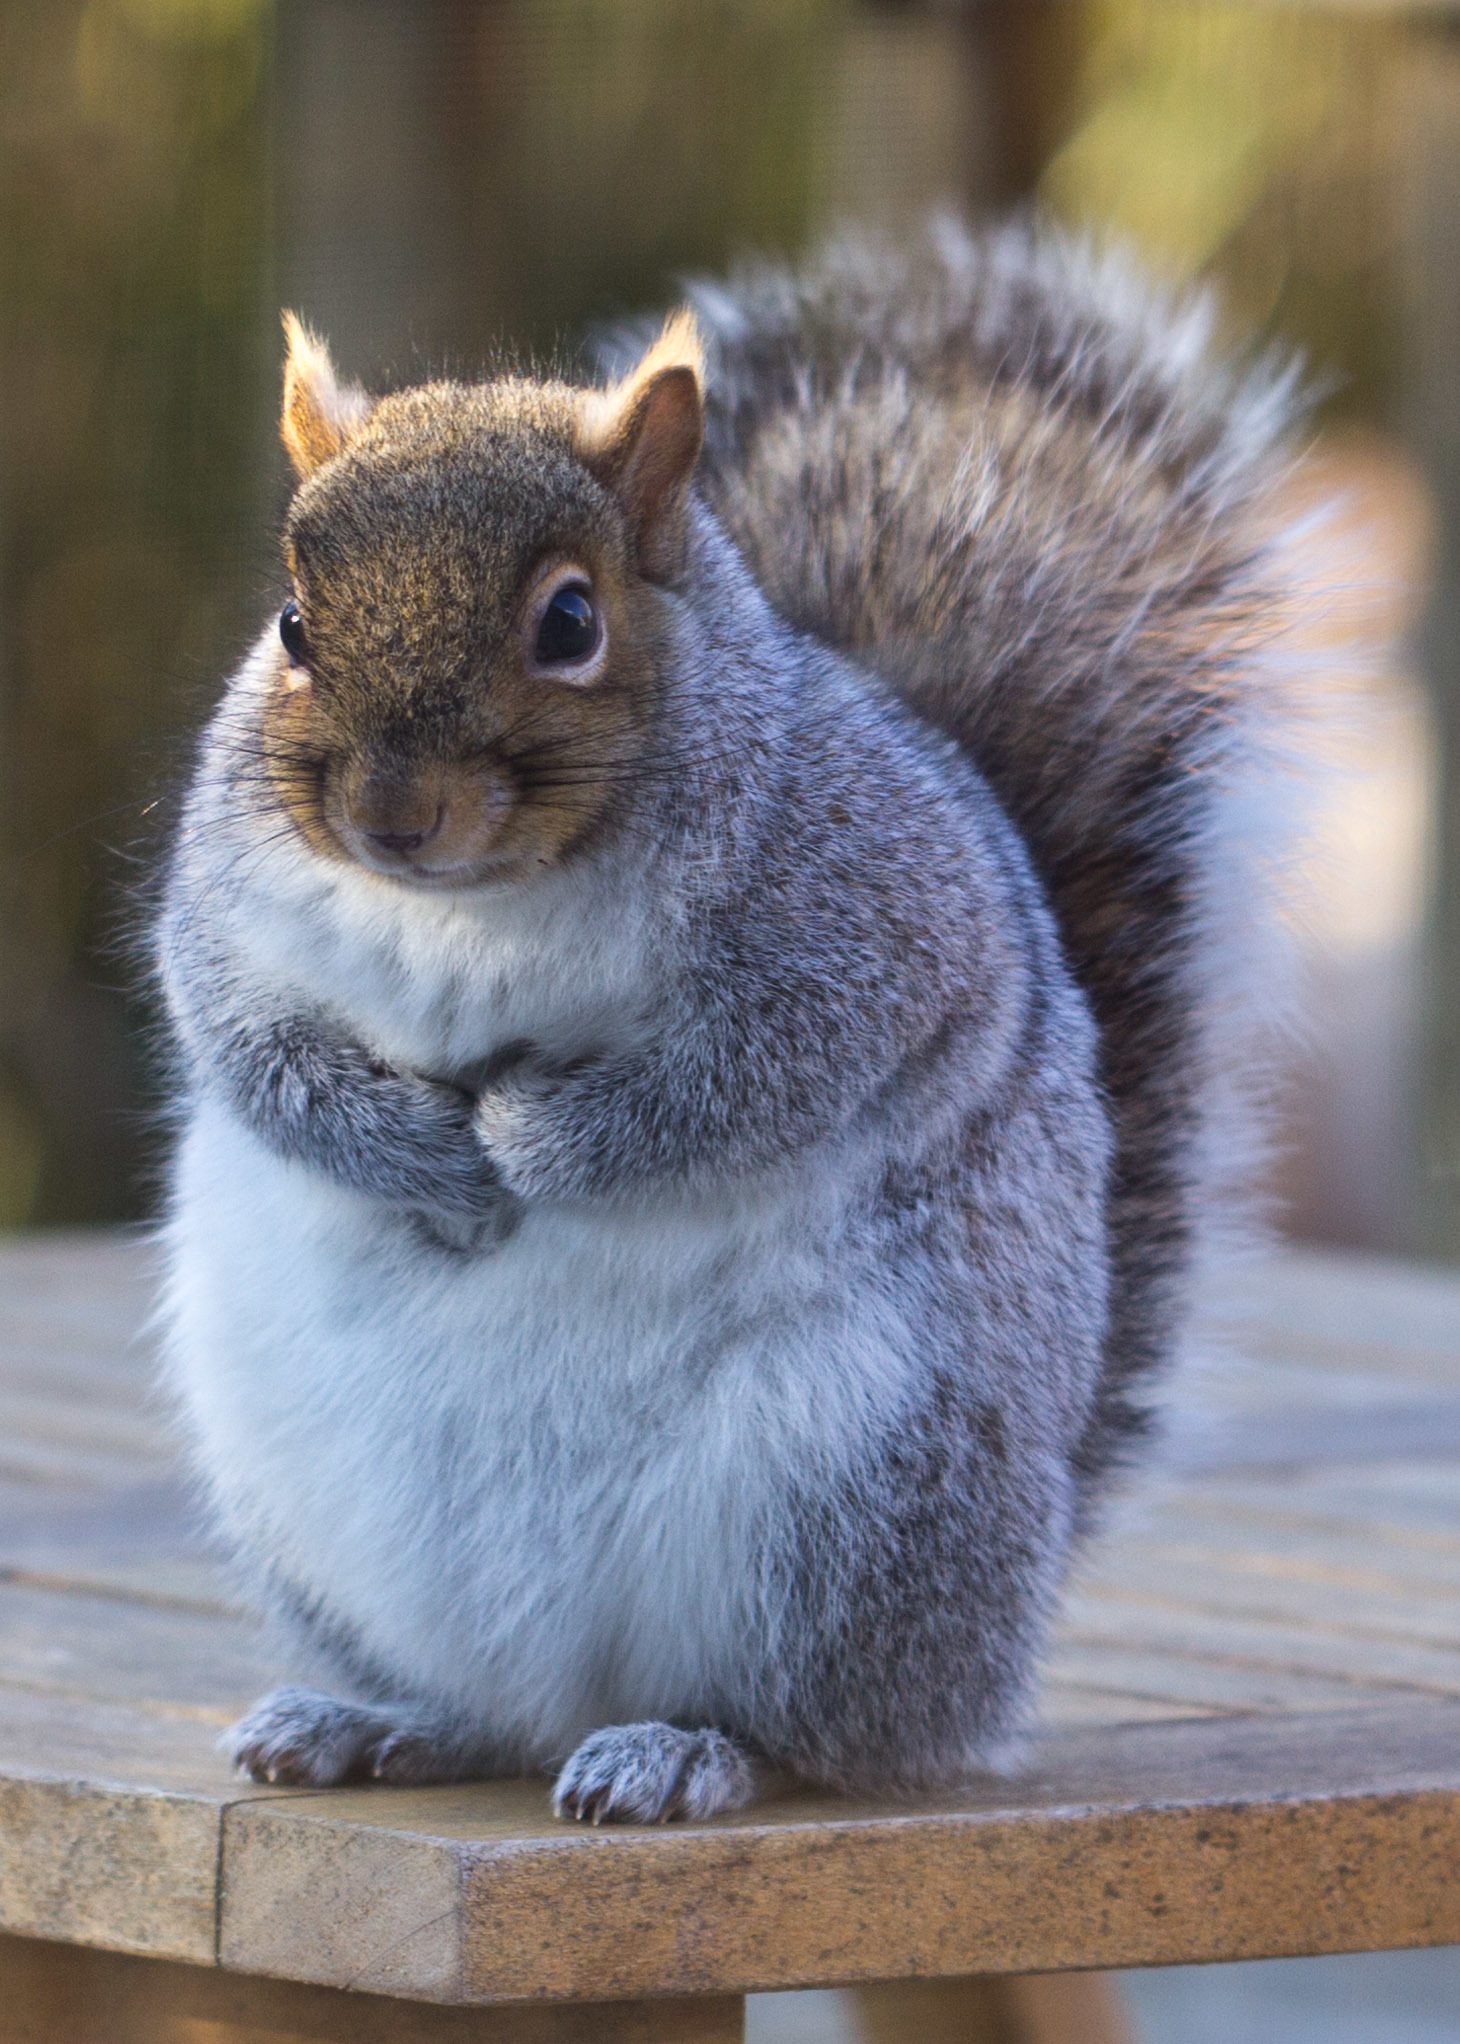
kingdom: Animalia
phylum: Chordata
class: Mammalia
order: Rodentia
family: Sciuridae
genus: Sciurus
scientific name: Sciurus carolinensis
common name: Eastern gray squirrel
